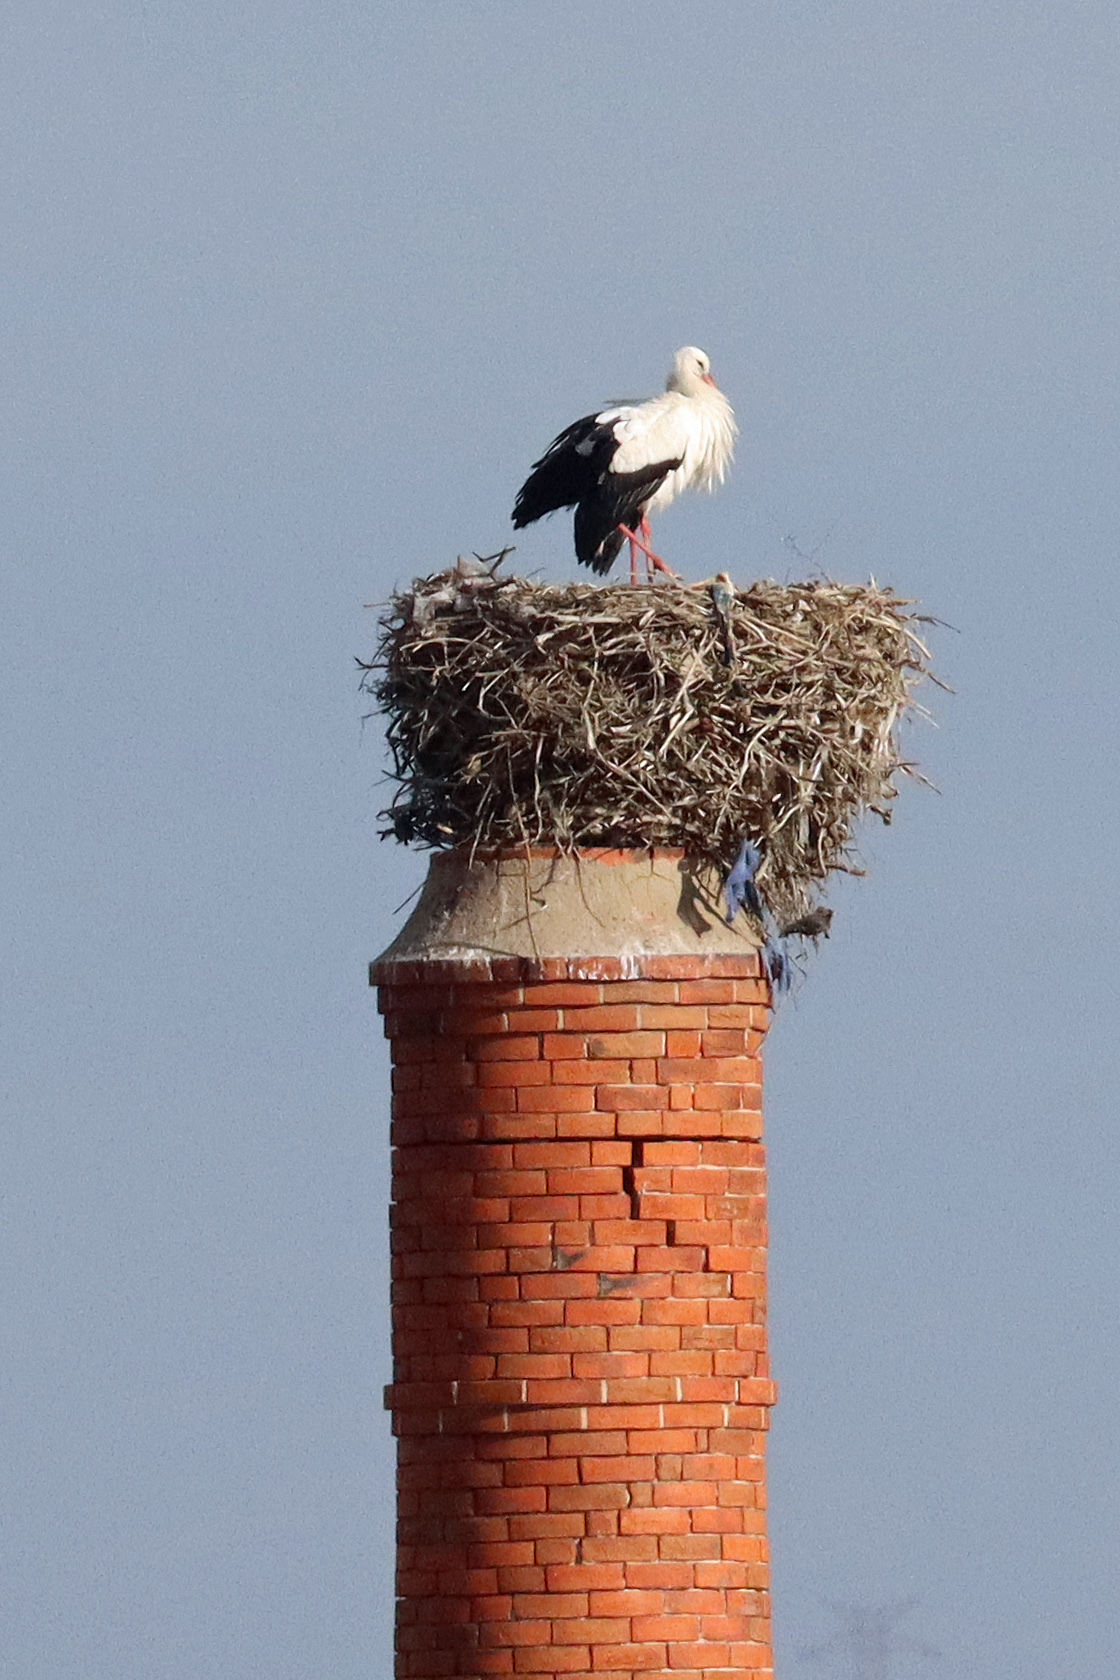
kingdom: Animalia
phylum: Chordata
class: Aves
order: Ciconiiformes
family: Ciconiidae
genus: Ciconia
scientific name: Ciconia ciconia
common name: White stork
